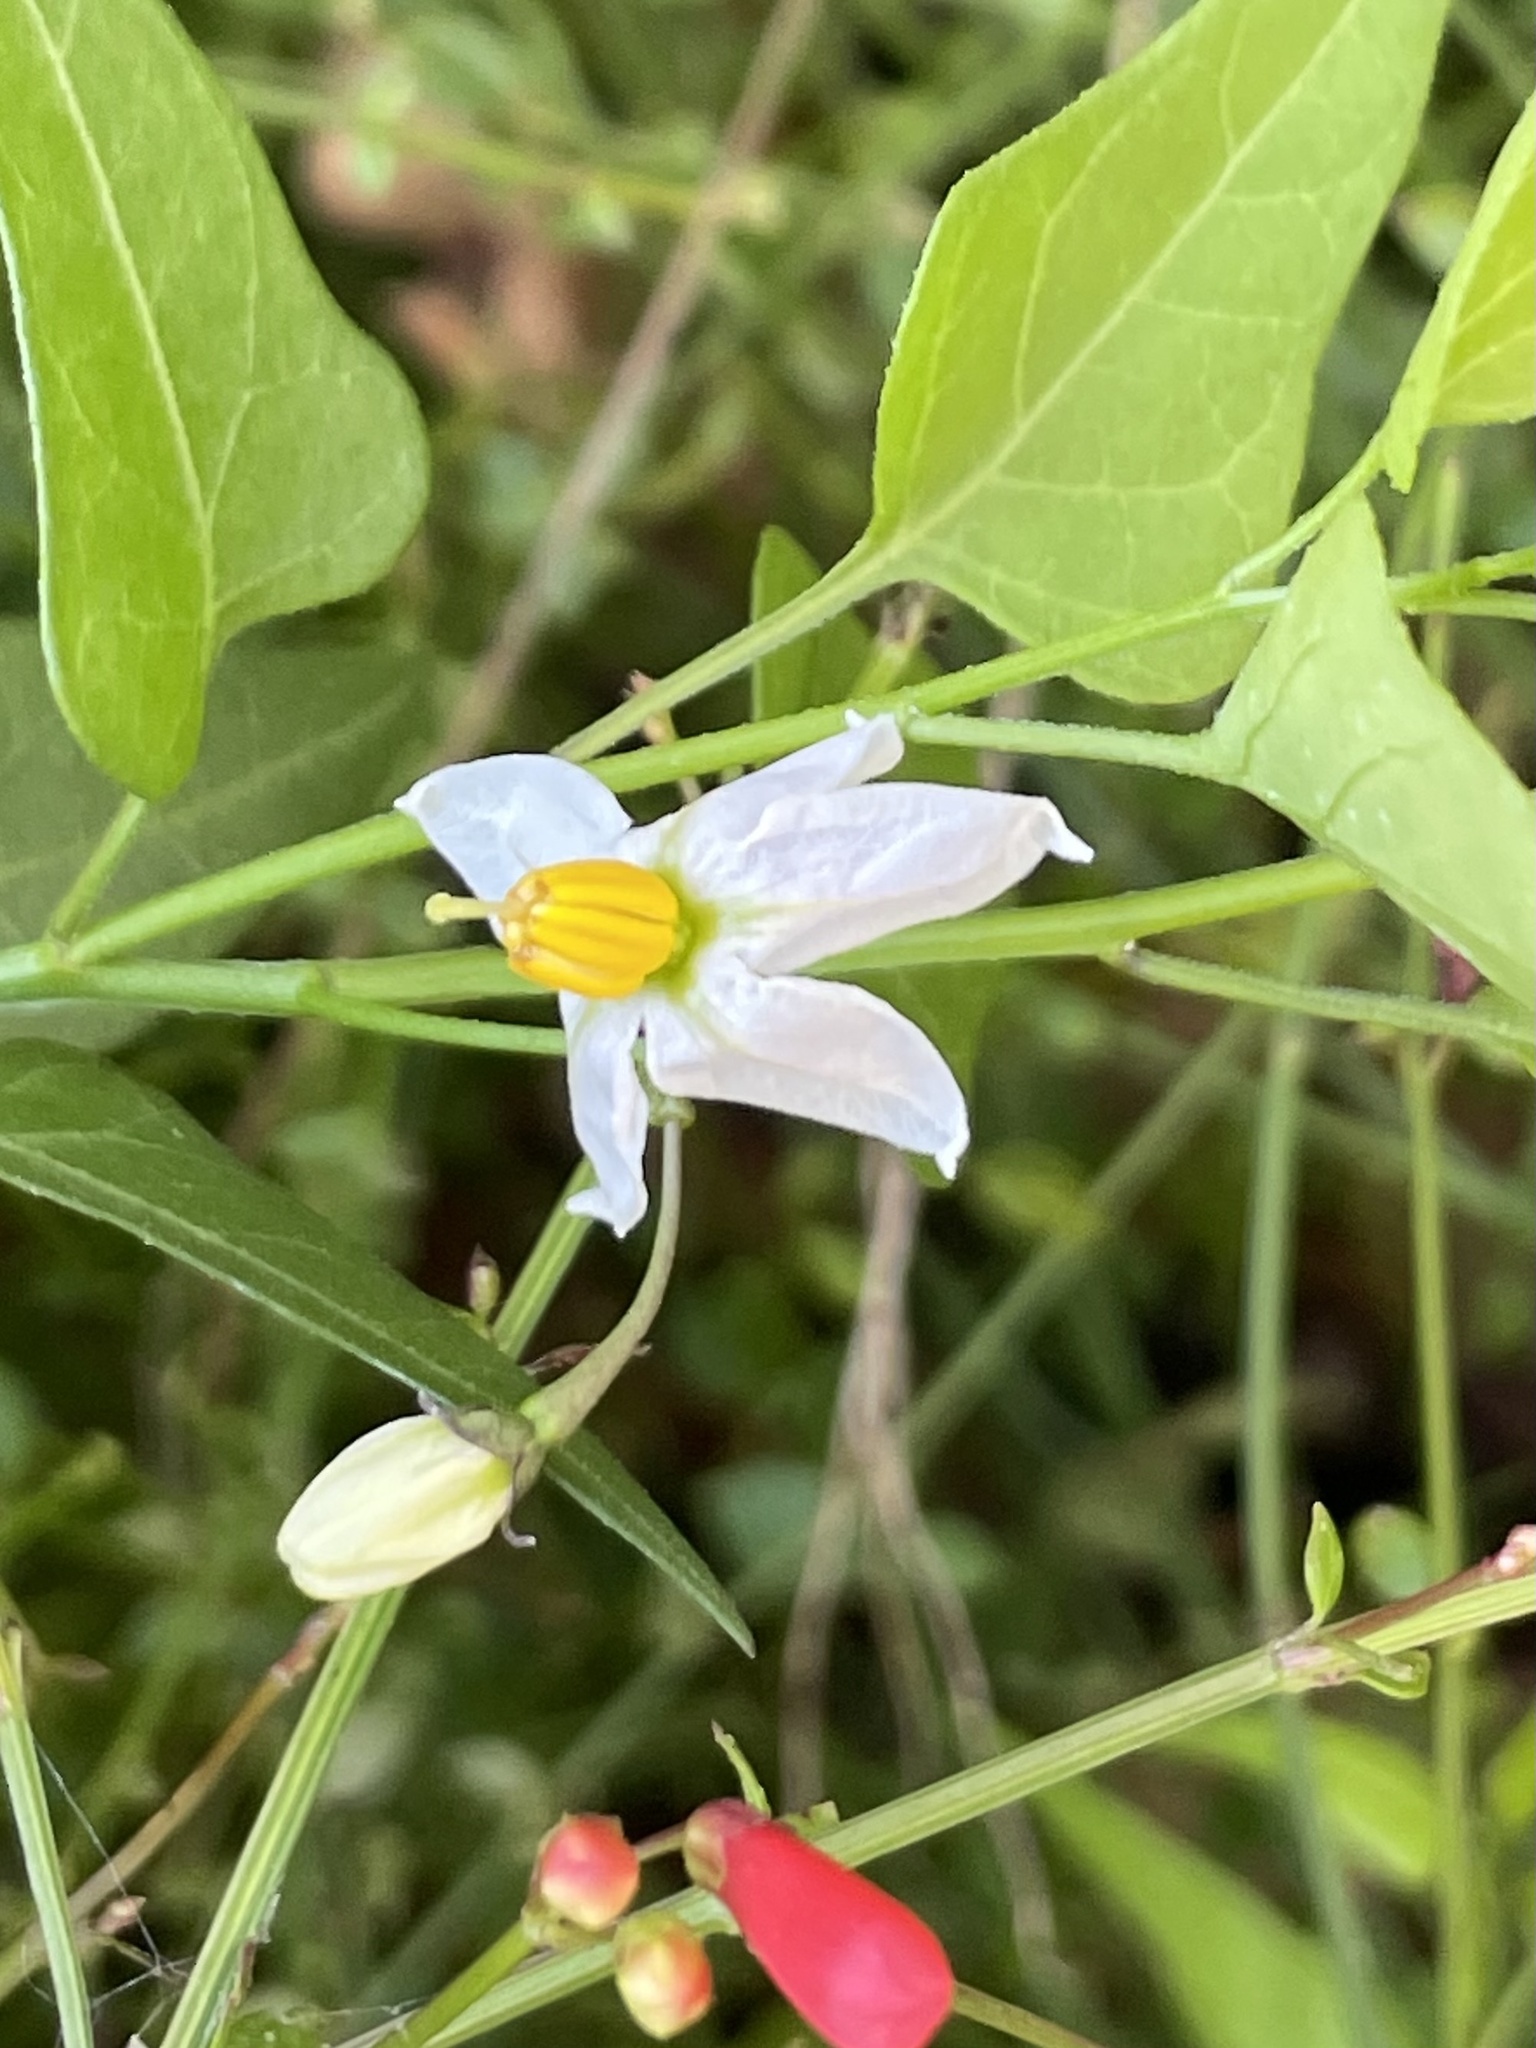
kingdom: Plantae
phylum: Tracheophyta
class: Magnoliopsida
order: Solanales
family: Solanaceae
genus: Solanum
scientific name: Solanum triquetrum
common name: Texas nightshade
